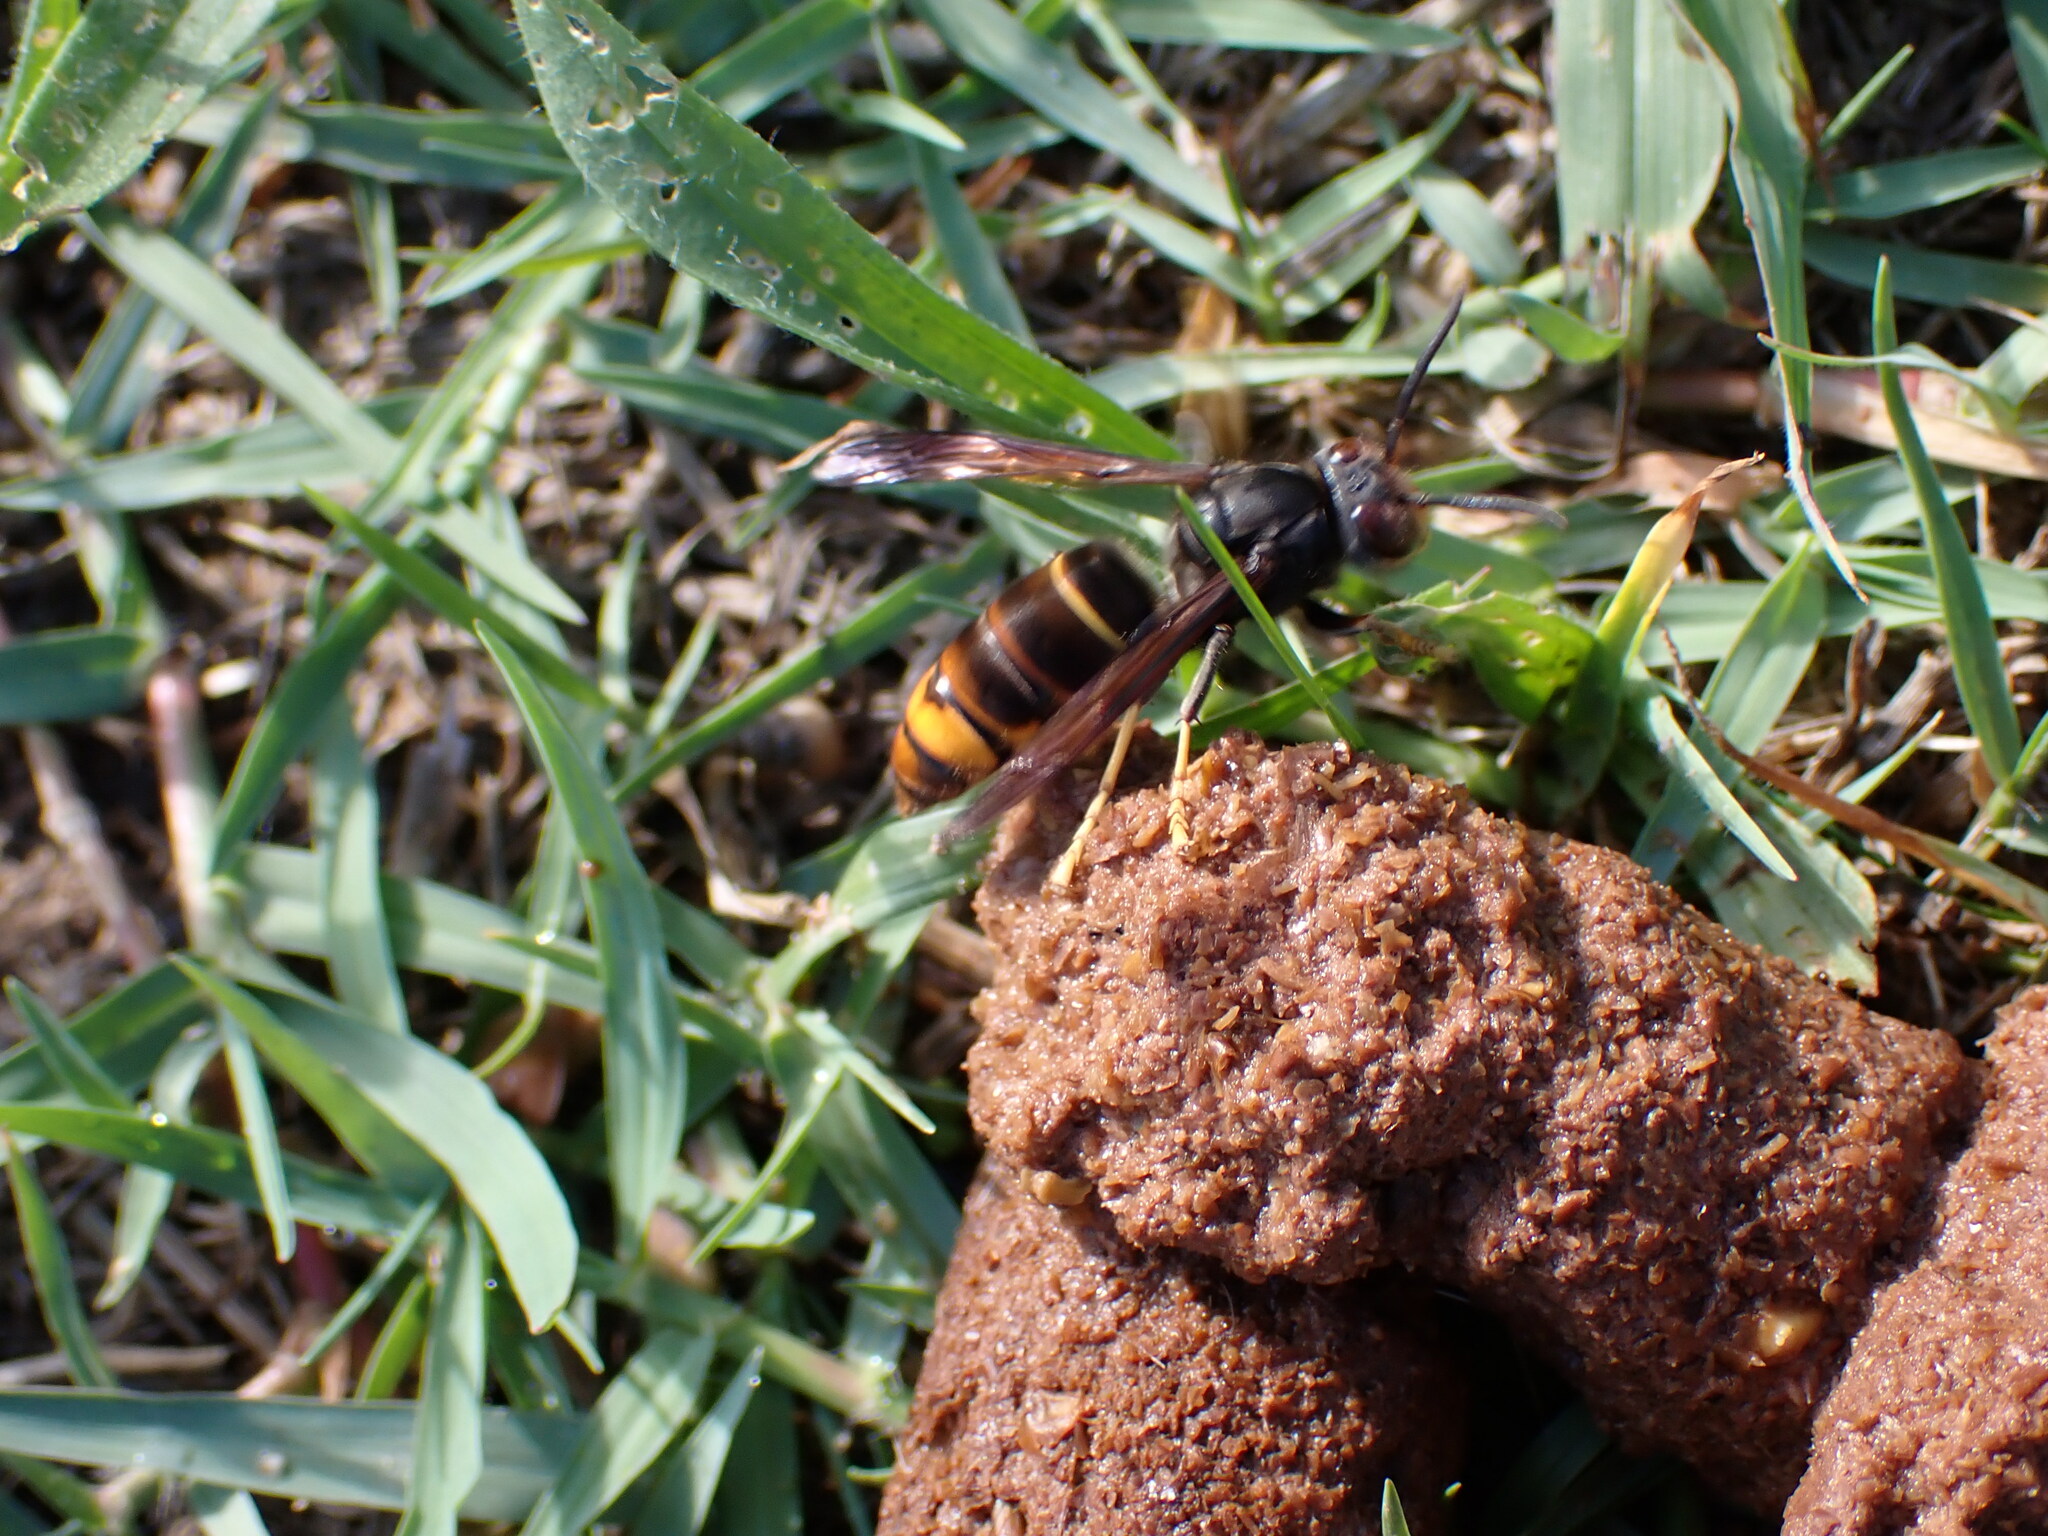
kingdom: Animalia
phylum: Arthropoda
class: Insecta
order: Hymenoptera
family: Vespidae
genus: Vespa
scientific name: Vespa velutina
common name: Asian hornet
